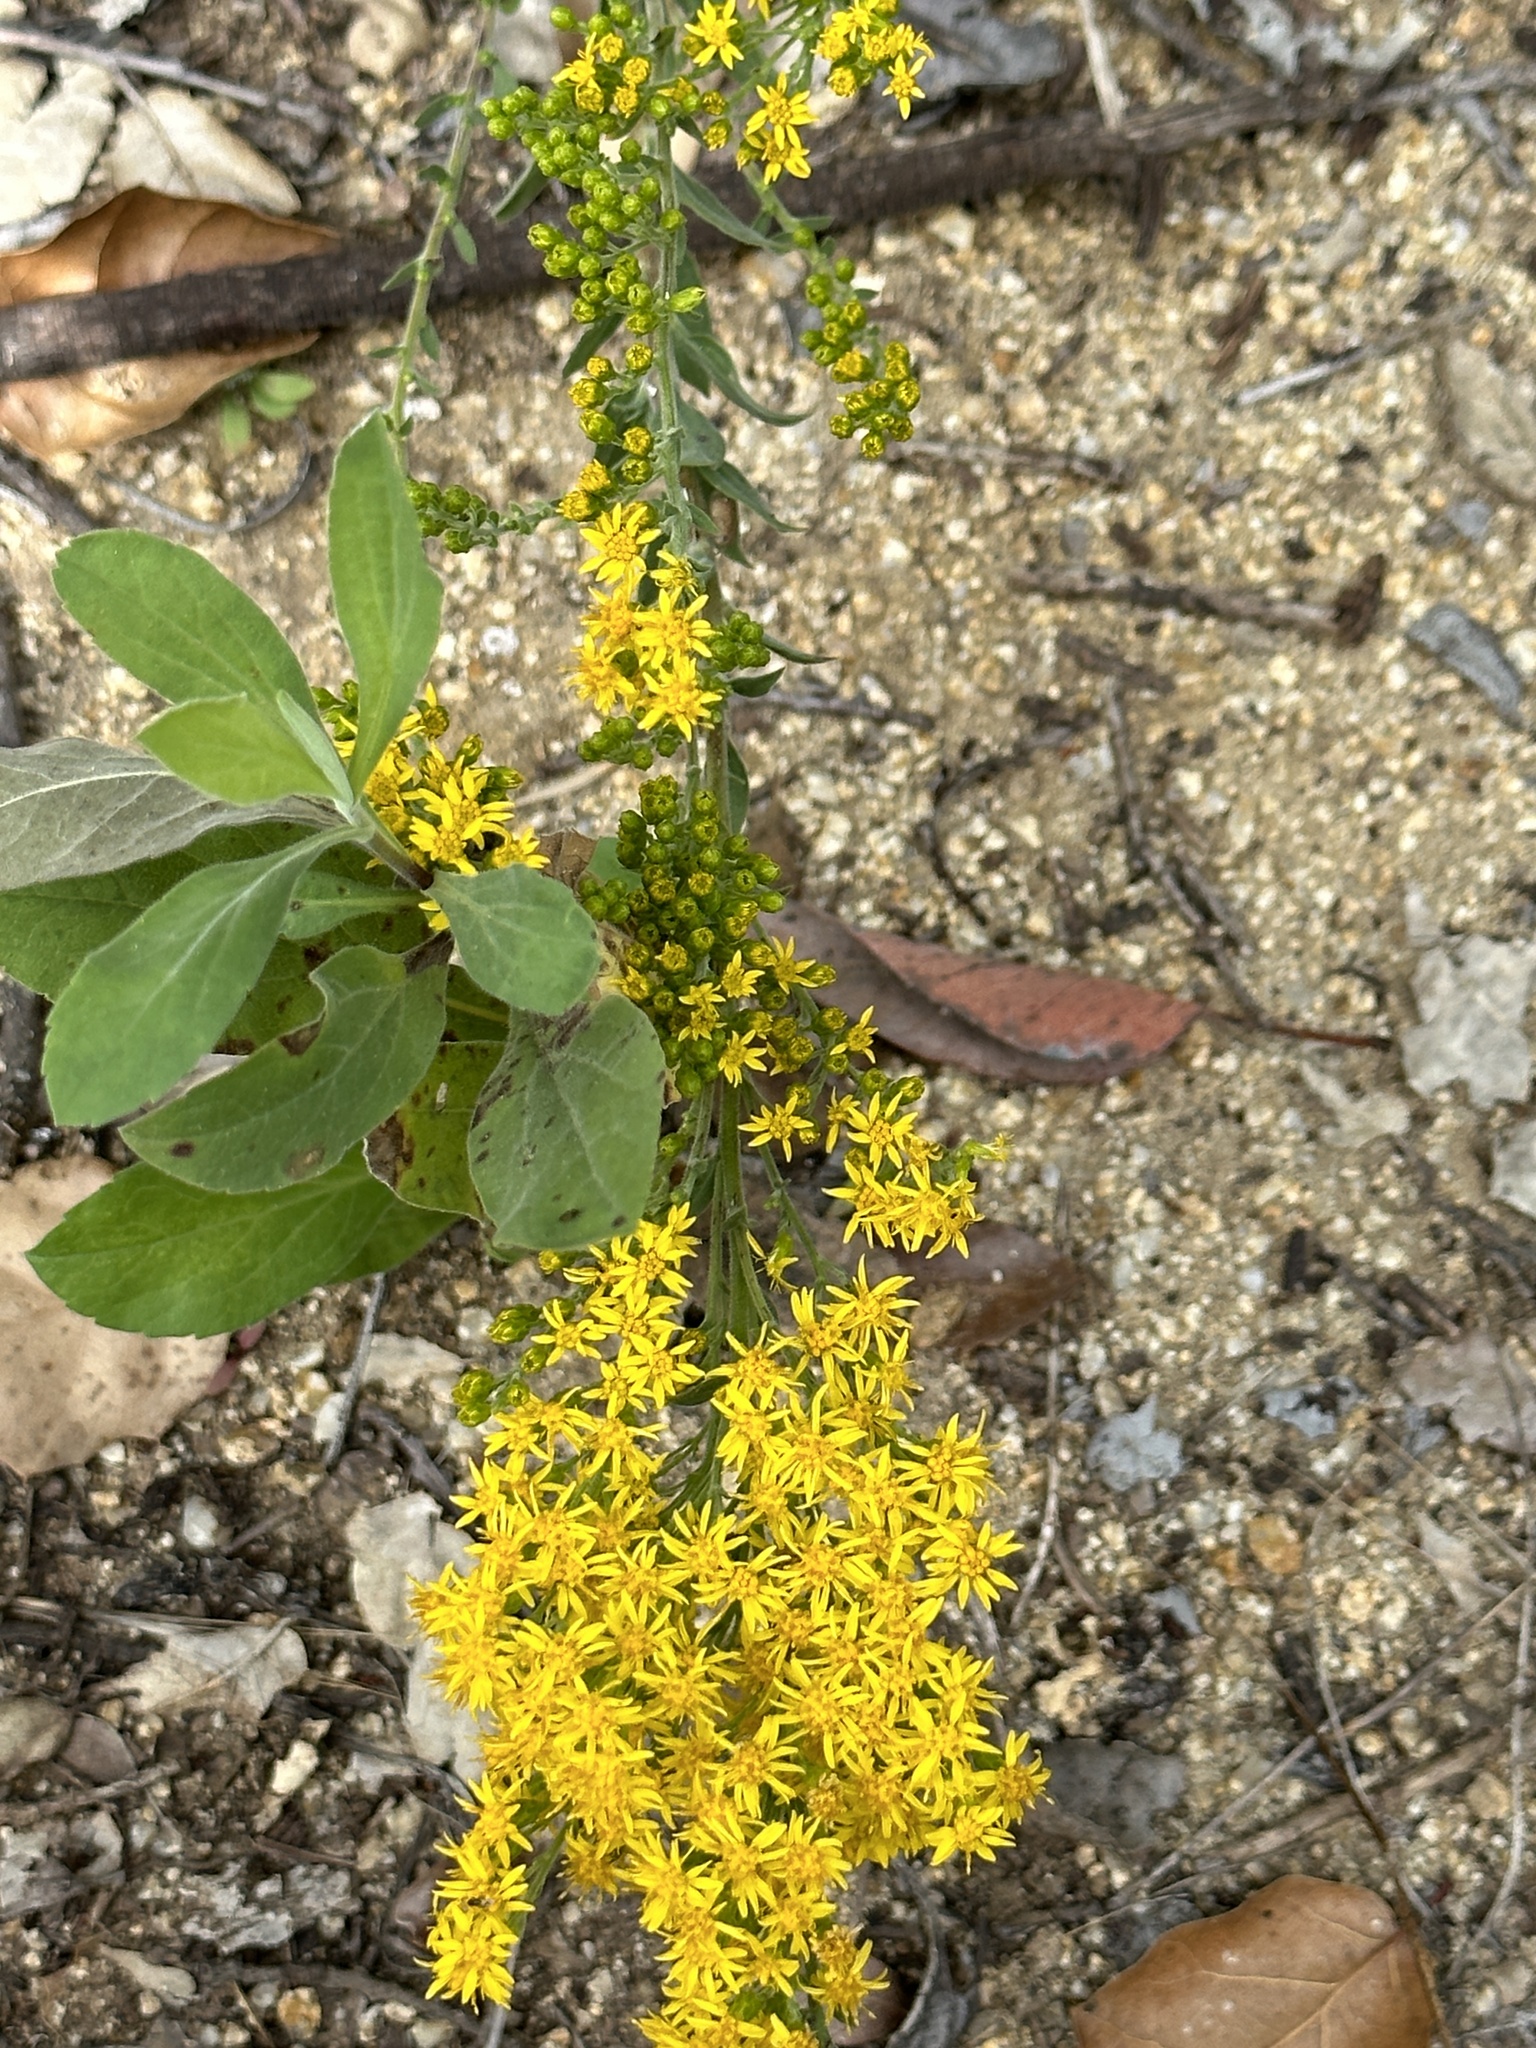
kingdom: Plantae
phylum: Tracheophyta
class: Magnoliopsida
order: Asterales
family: Asteraceae
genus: Solidago
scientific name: Solidago velutina
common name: Three-nerve goldenrod
